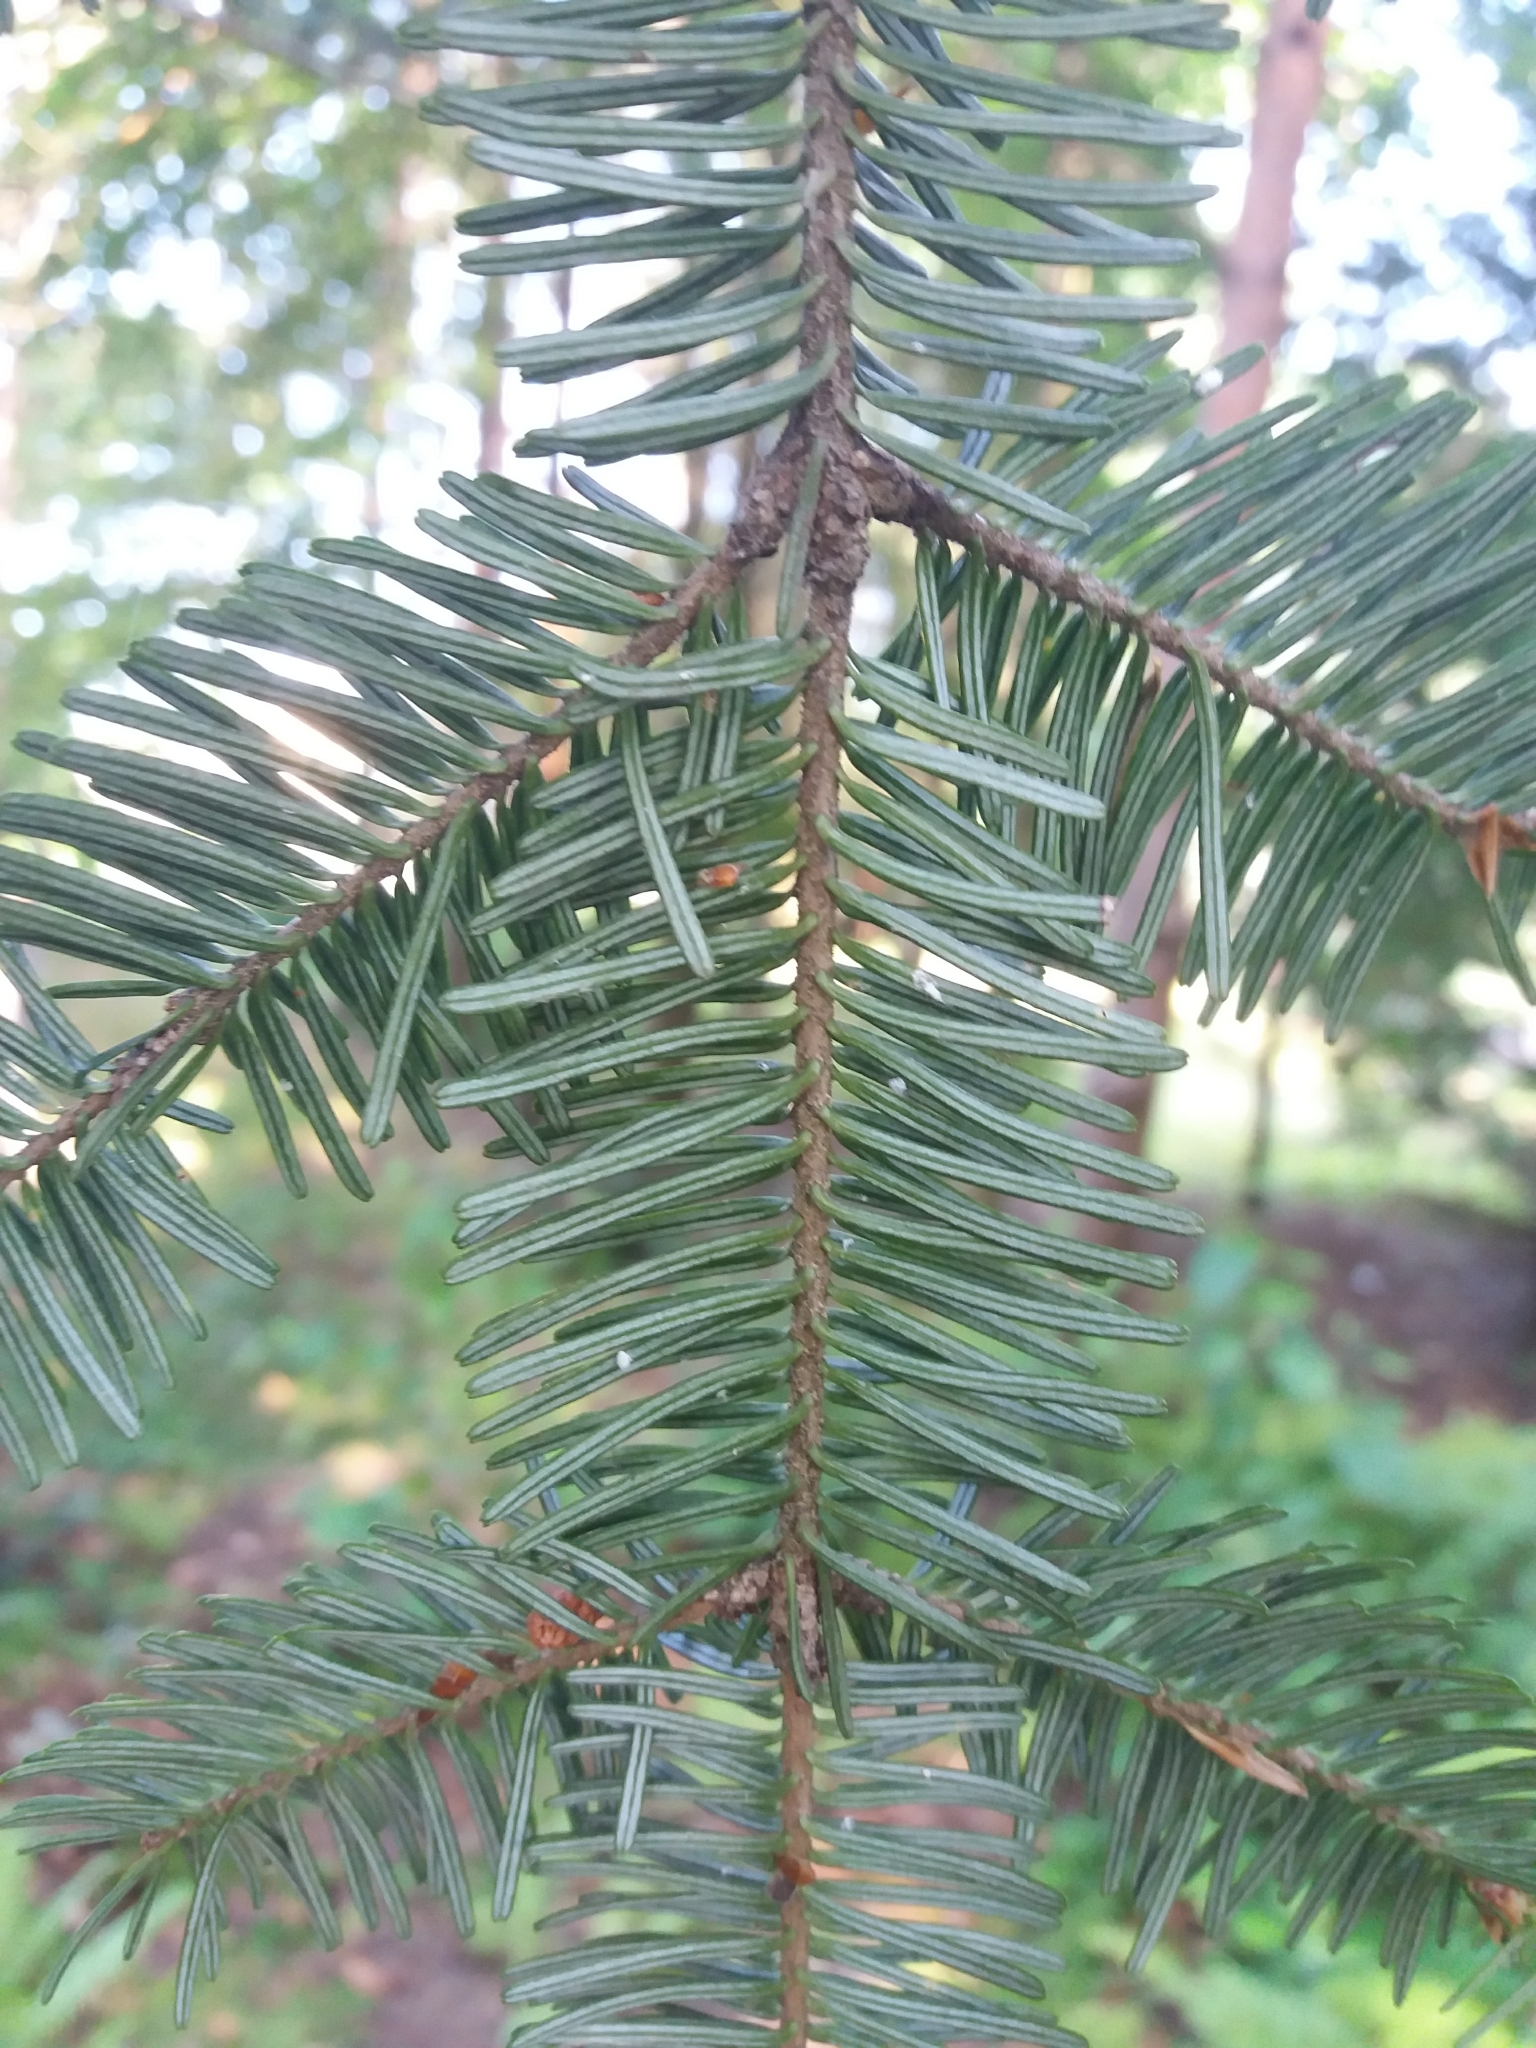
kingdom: Plantae
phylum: Tracheophyta
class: Pinopsida
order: Pinales
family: Pinaceae
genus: Abies
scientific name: Abies alba
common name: Silver fir
